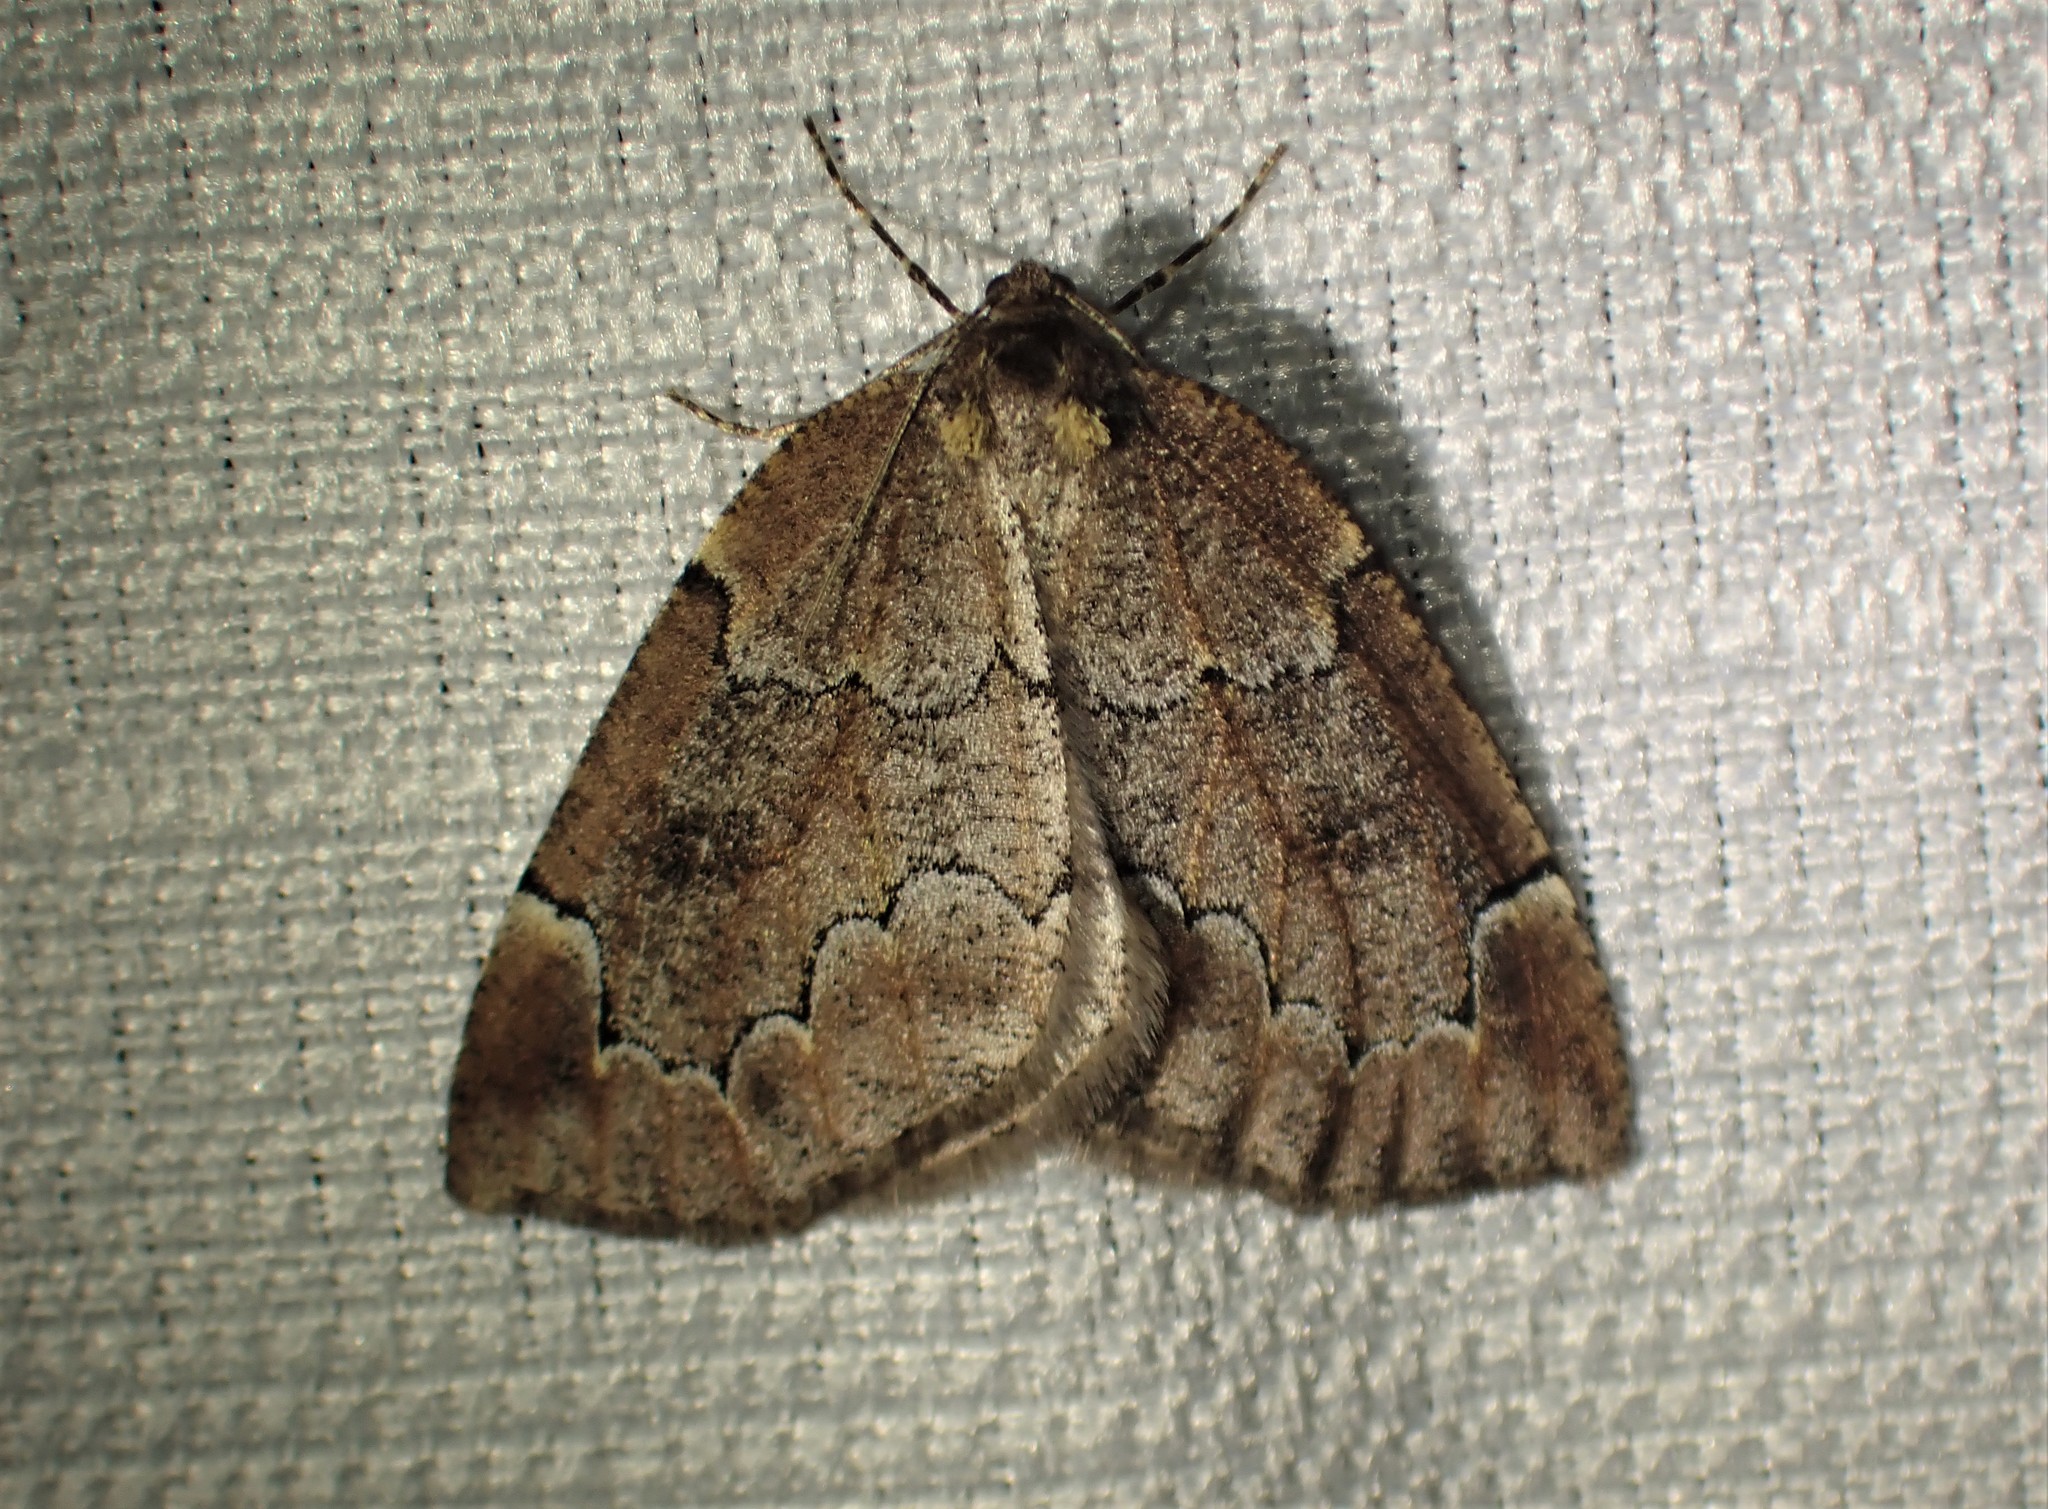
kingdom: Animalia
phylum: Arthropoda
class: Insecta
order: Lepidoptera
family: Geometridae
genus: Spodolepis
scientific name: Spodolepis substriataria
